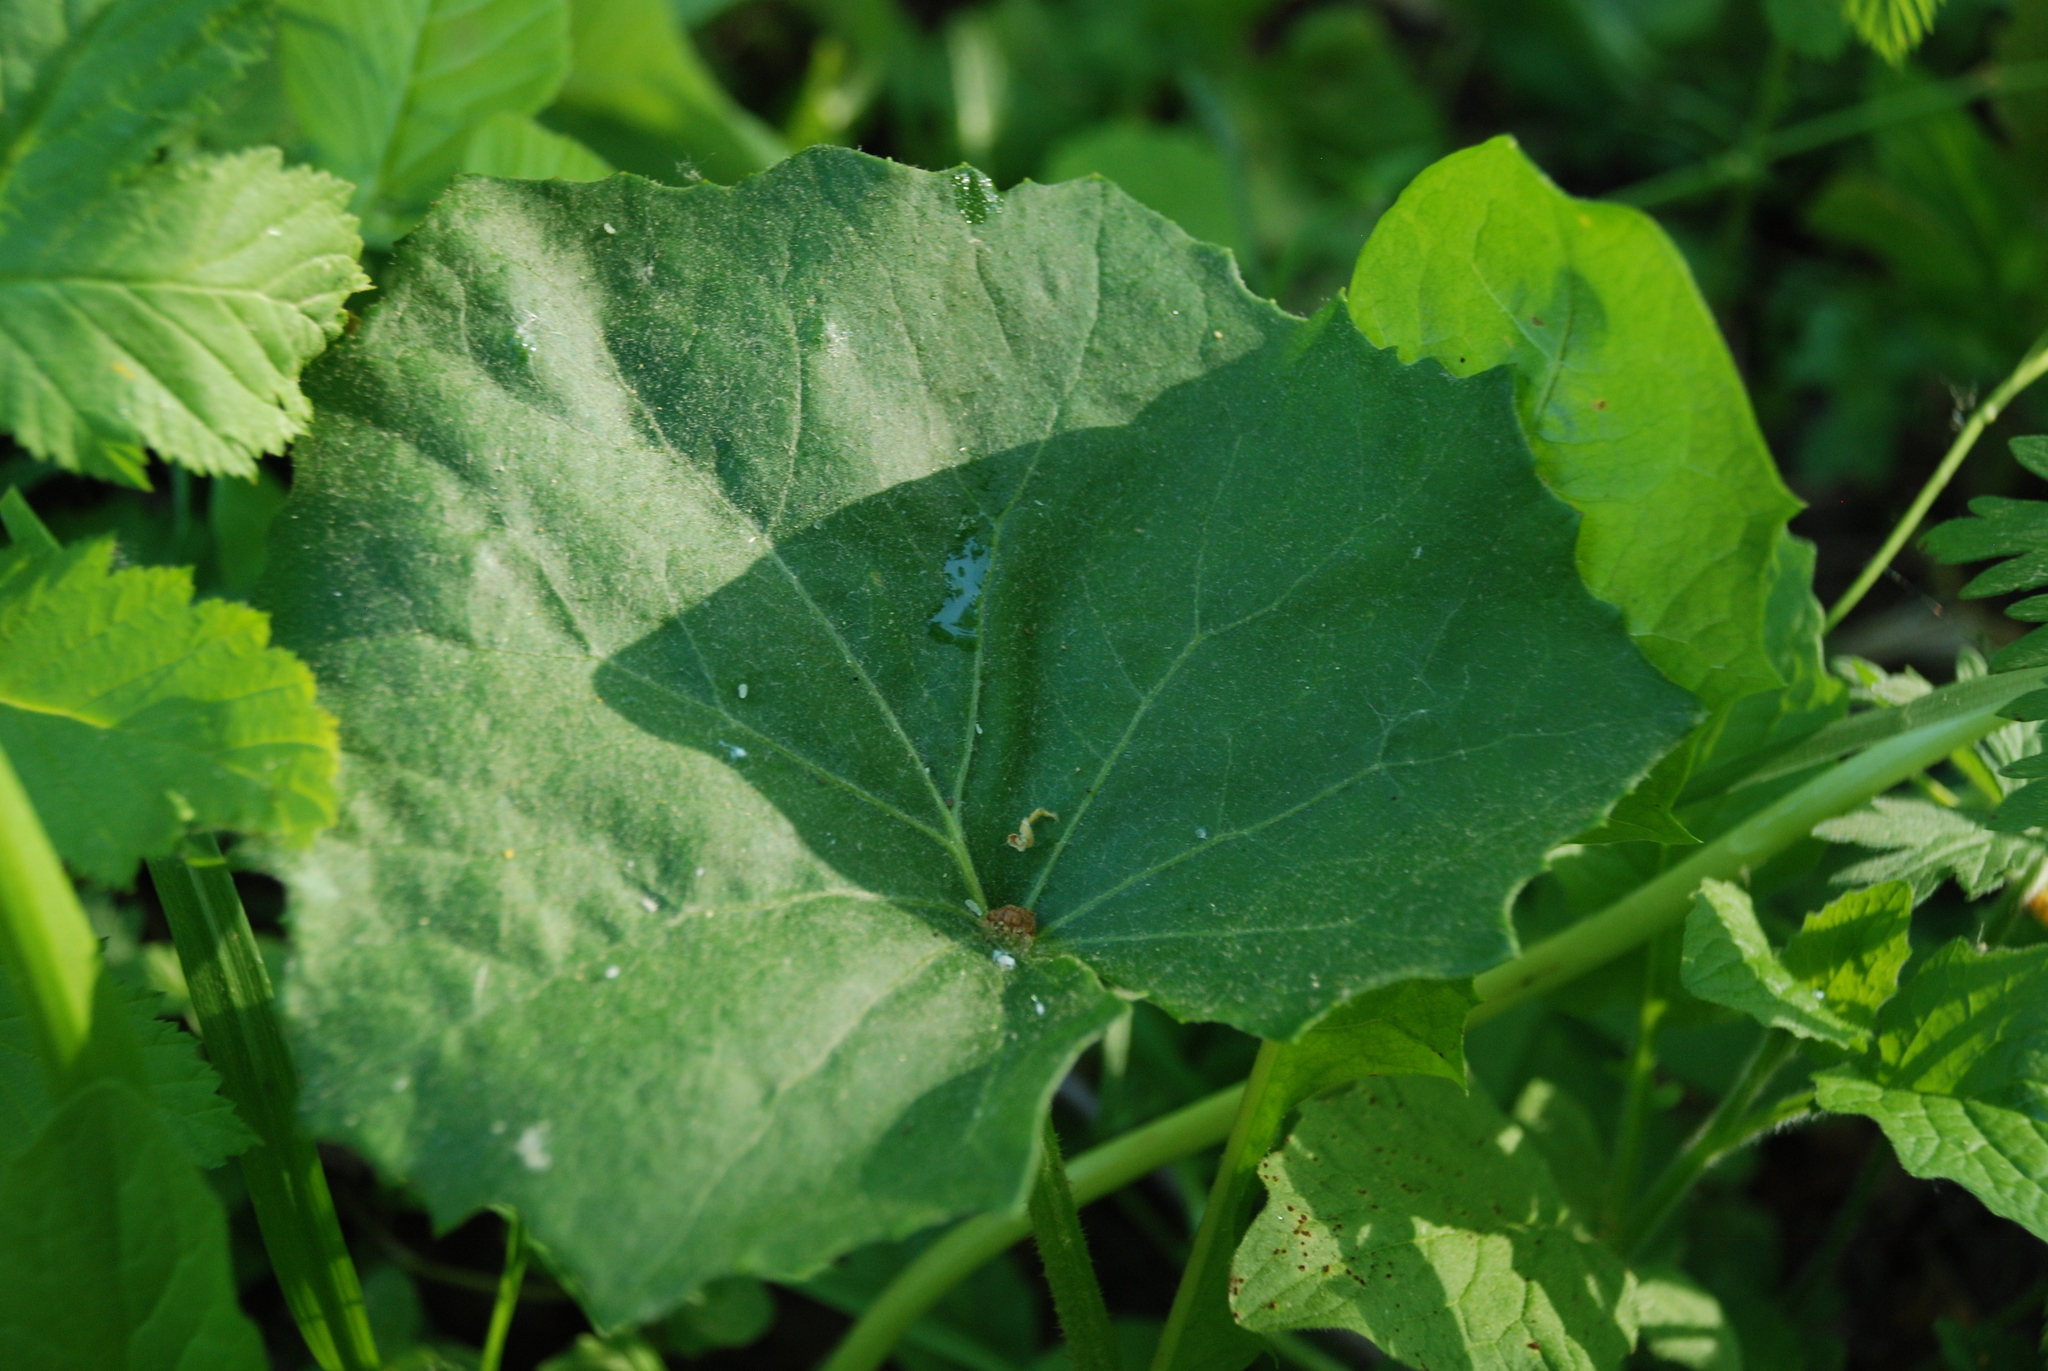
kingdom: Plantae
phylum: Tracheophyta
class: Magnoliopsida
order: Asterales
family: Asteraceae
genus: Tussilago
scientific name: Tussilago farfara
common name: Coltsfoot
